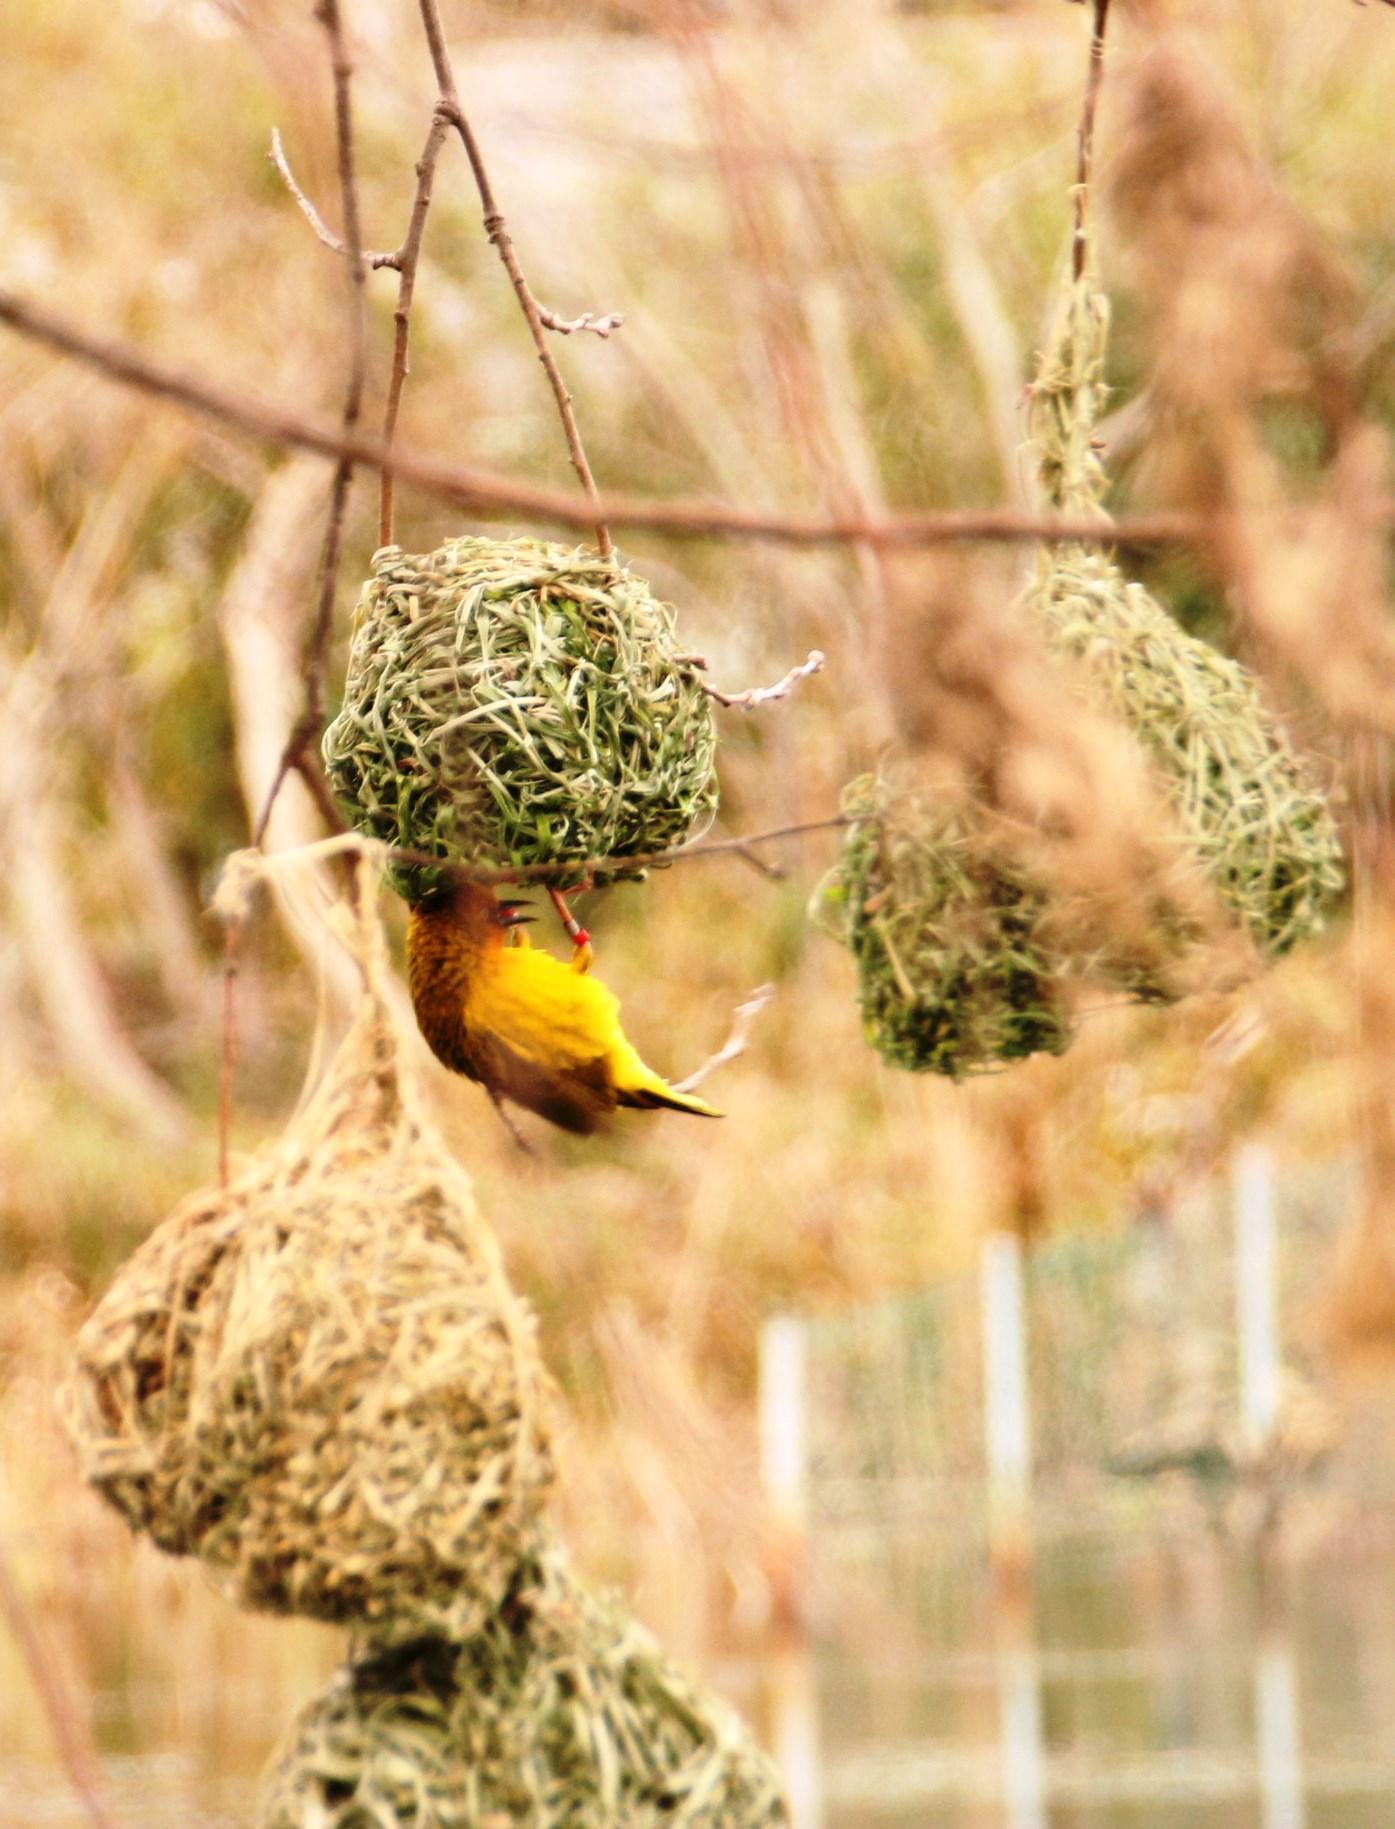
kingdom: Animalia
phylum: Chordata
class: Aves
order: Passeriformes
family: Ploceidae
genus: Ploceus
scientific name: Ploceus capensis
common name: Cape weaver
